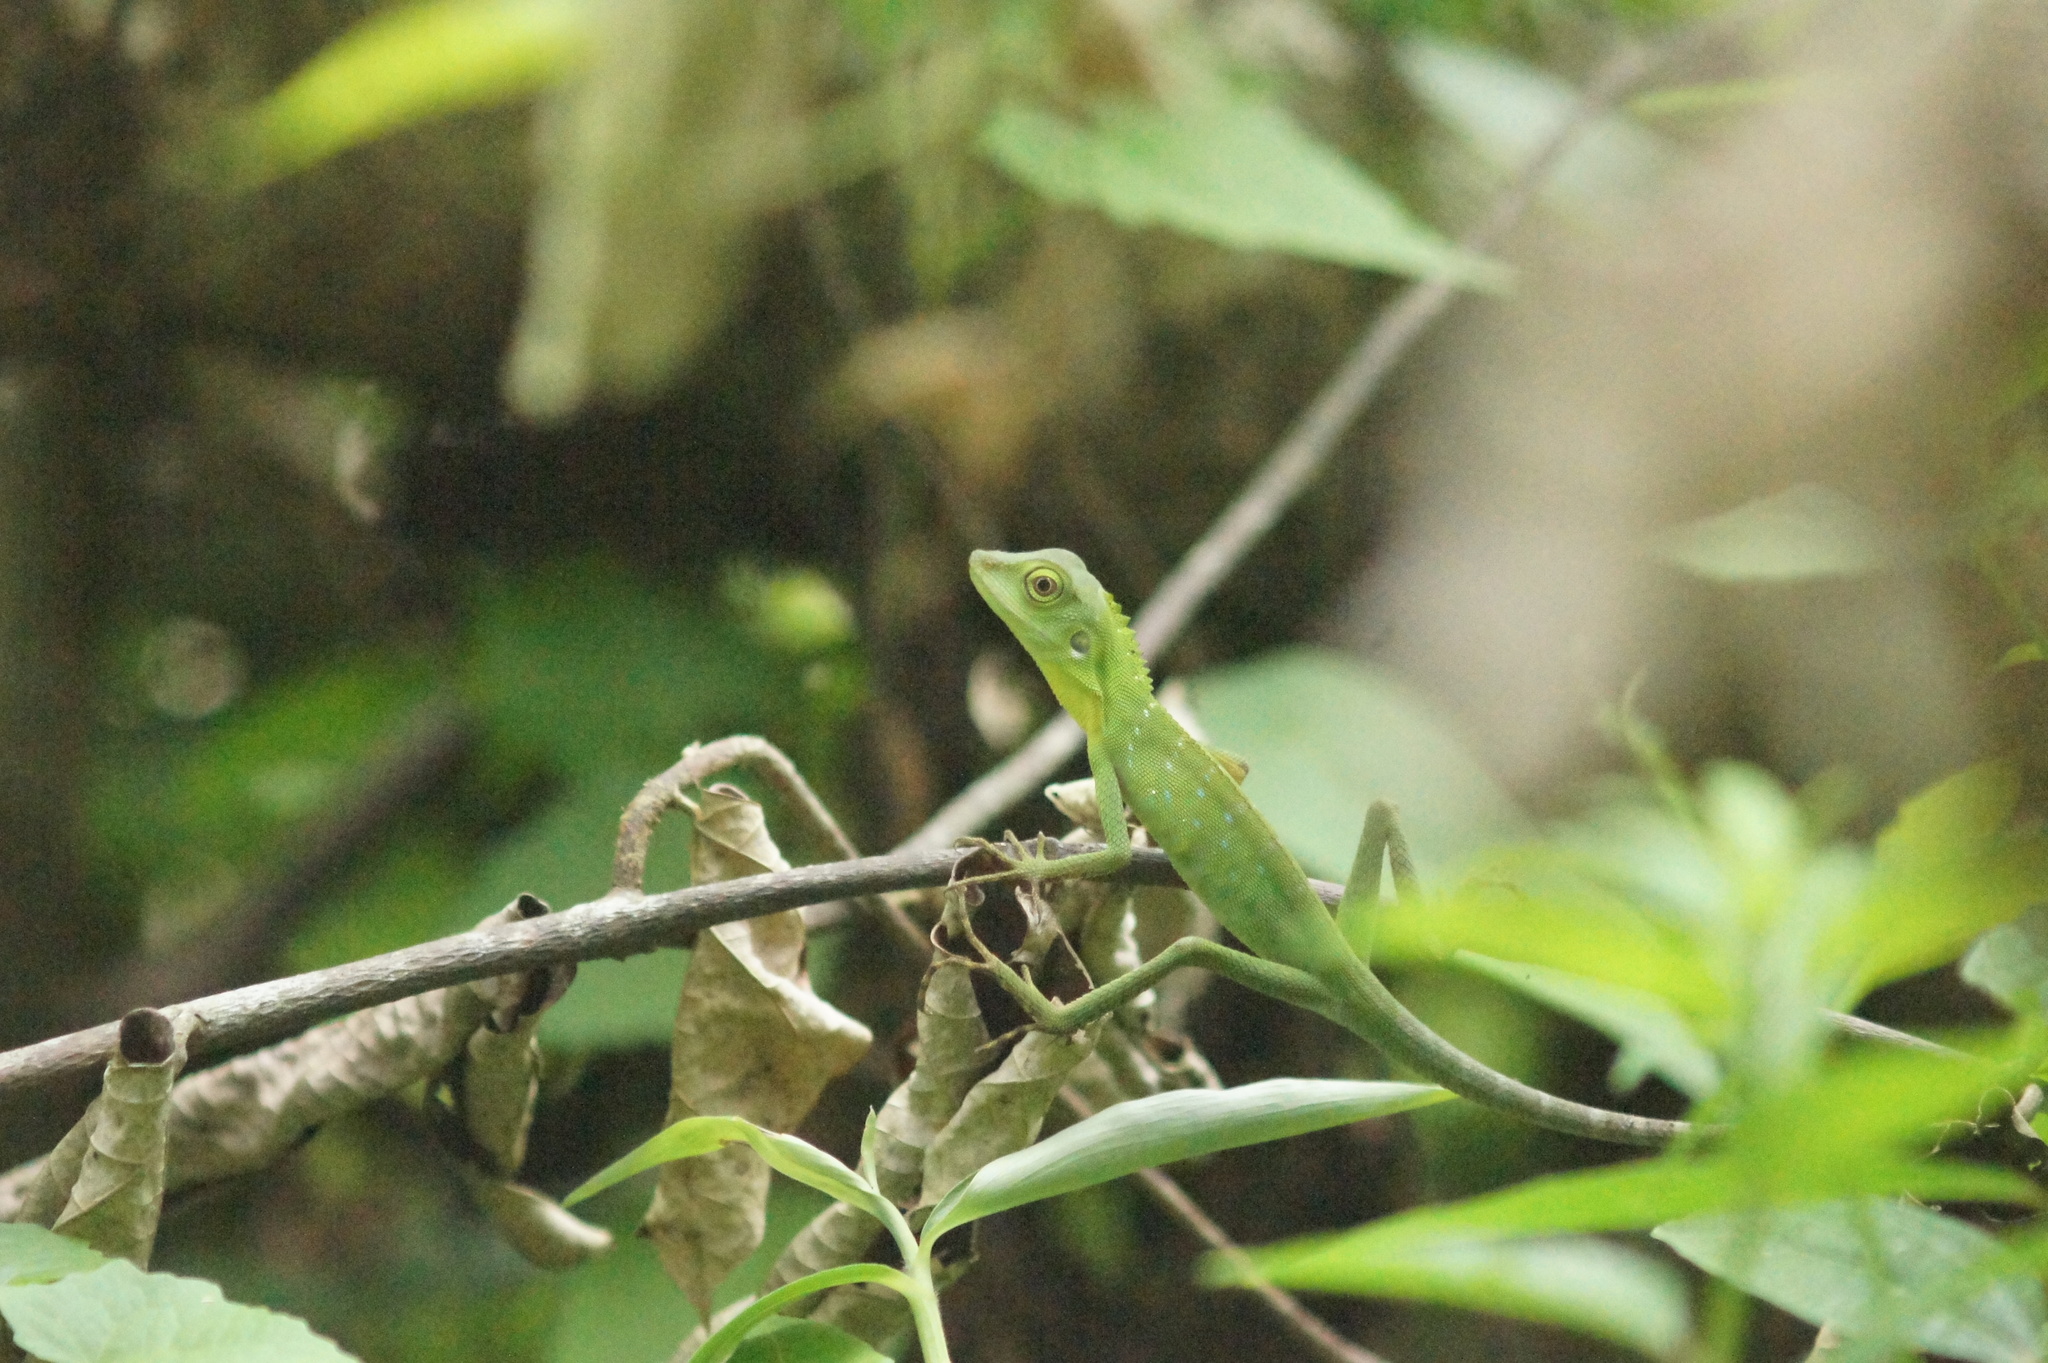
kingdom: Animalia
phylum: Chordata
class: Squamata
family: Agamidae
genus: Bronchocela
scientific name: Bronchocela cristatella
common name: Green crested lizard
